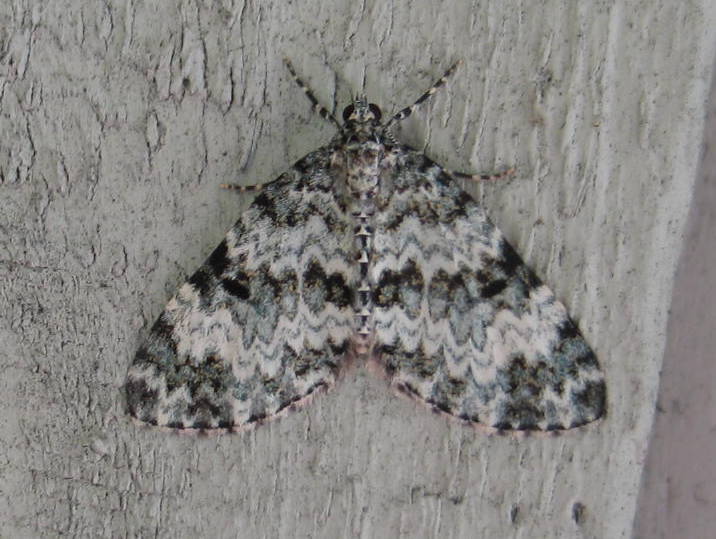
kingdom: Animalia
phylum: Arthropoda
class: Insecta
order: Lepidoptera
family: Geometridae
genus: Spargania
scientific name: Spargania magnoliata
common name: Double-banded carpet
